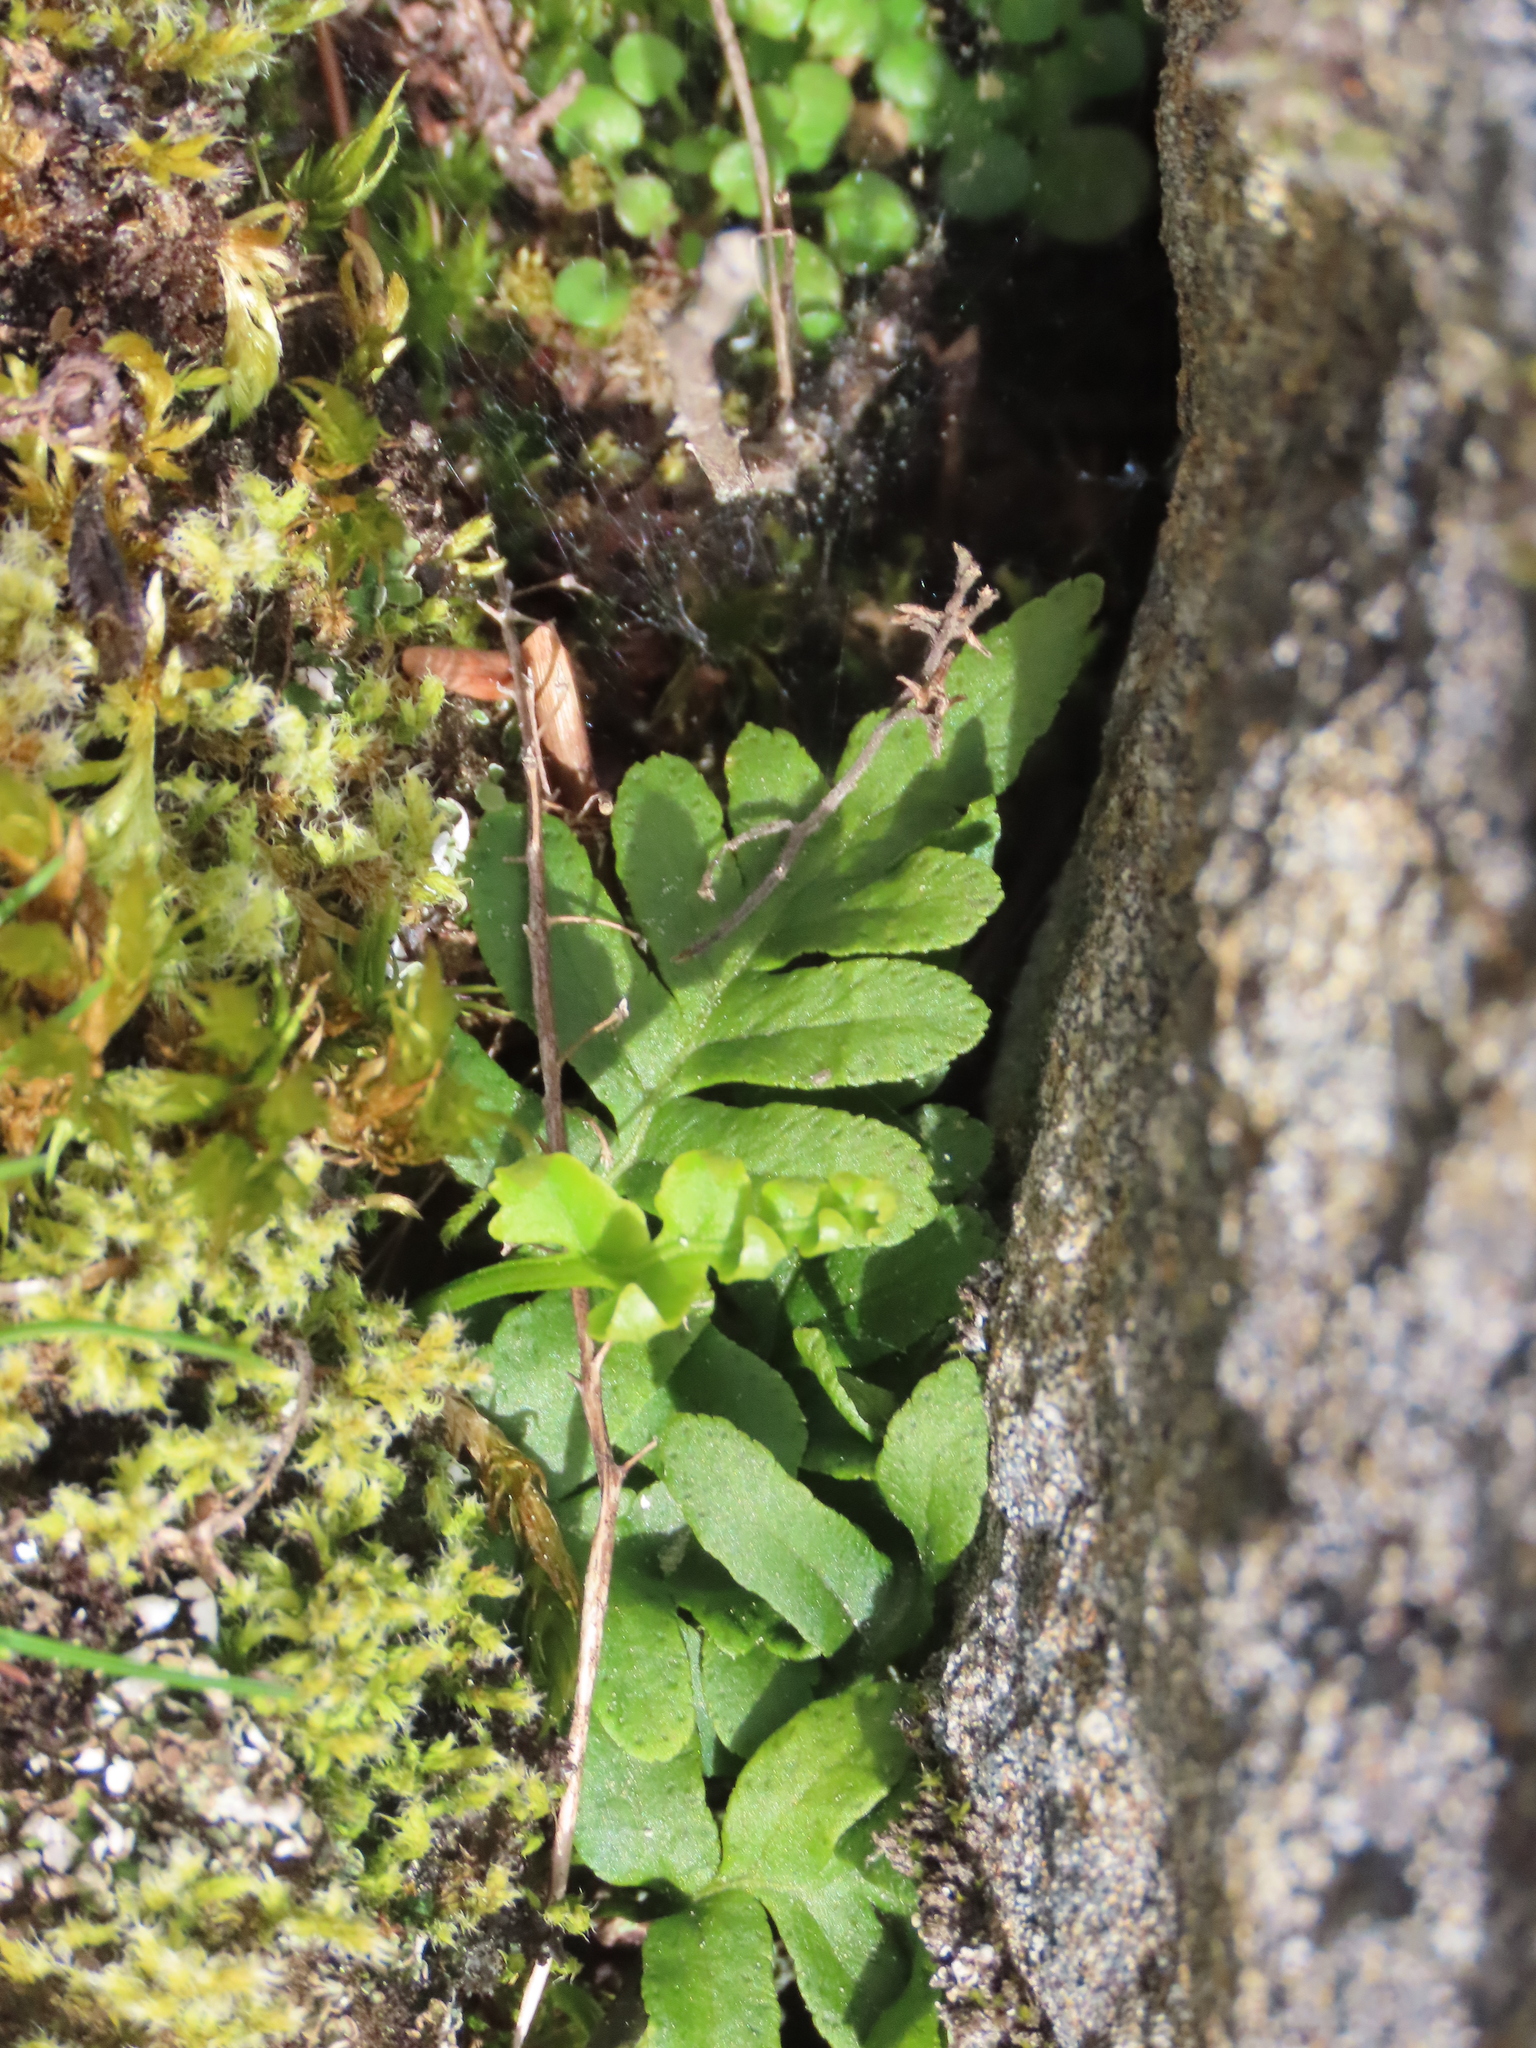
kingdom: Plantae
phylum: Tracheophyta
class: Polypodiopsida
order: Polypodiales
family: Polypodiaceae
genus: Polypodium
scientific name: Polypodium glycyrrhiza
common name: Licorice fern
